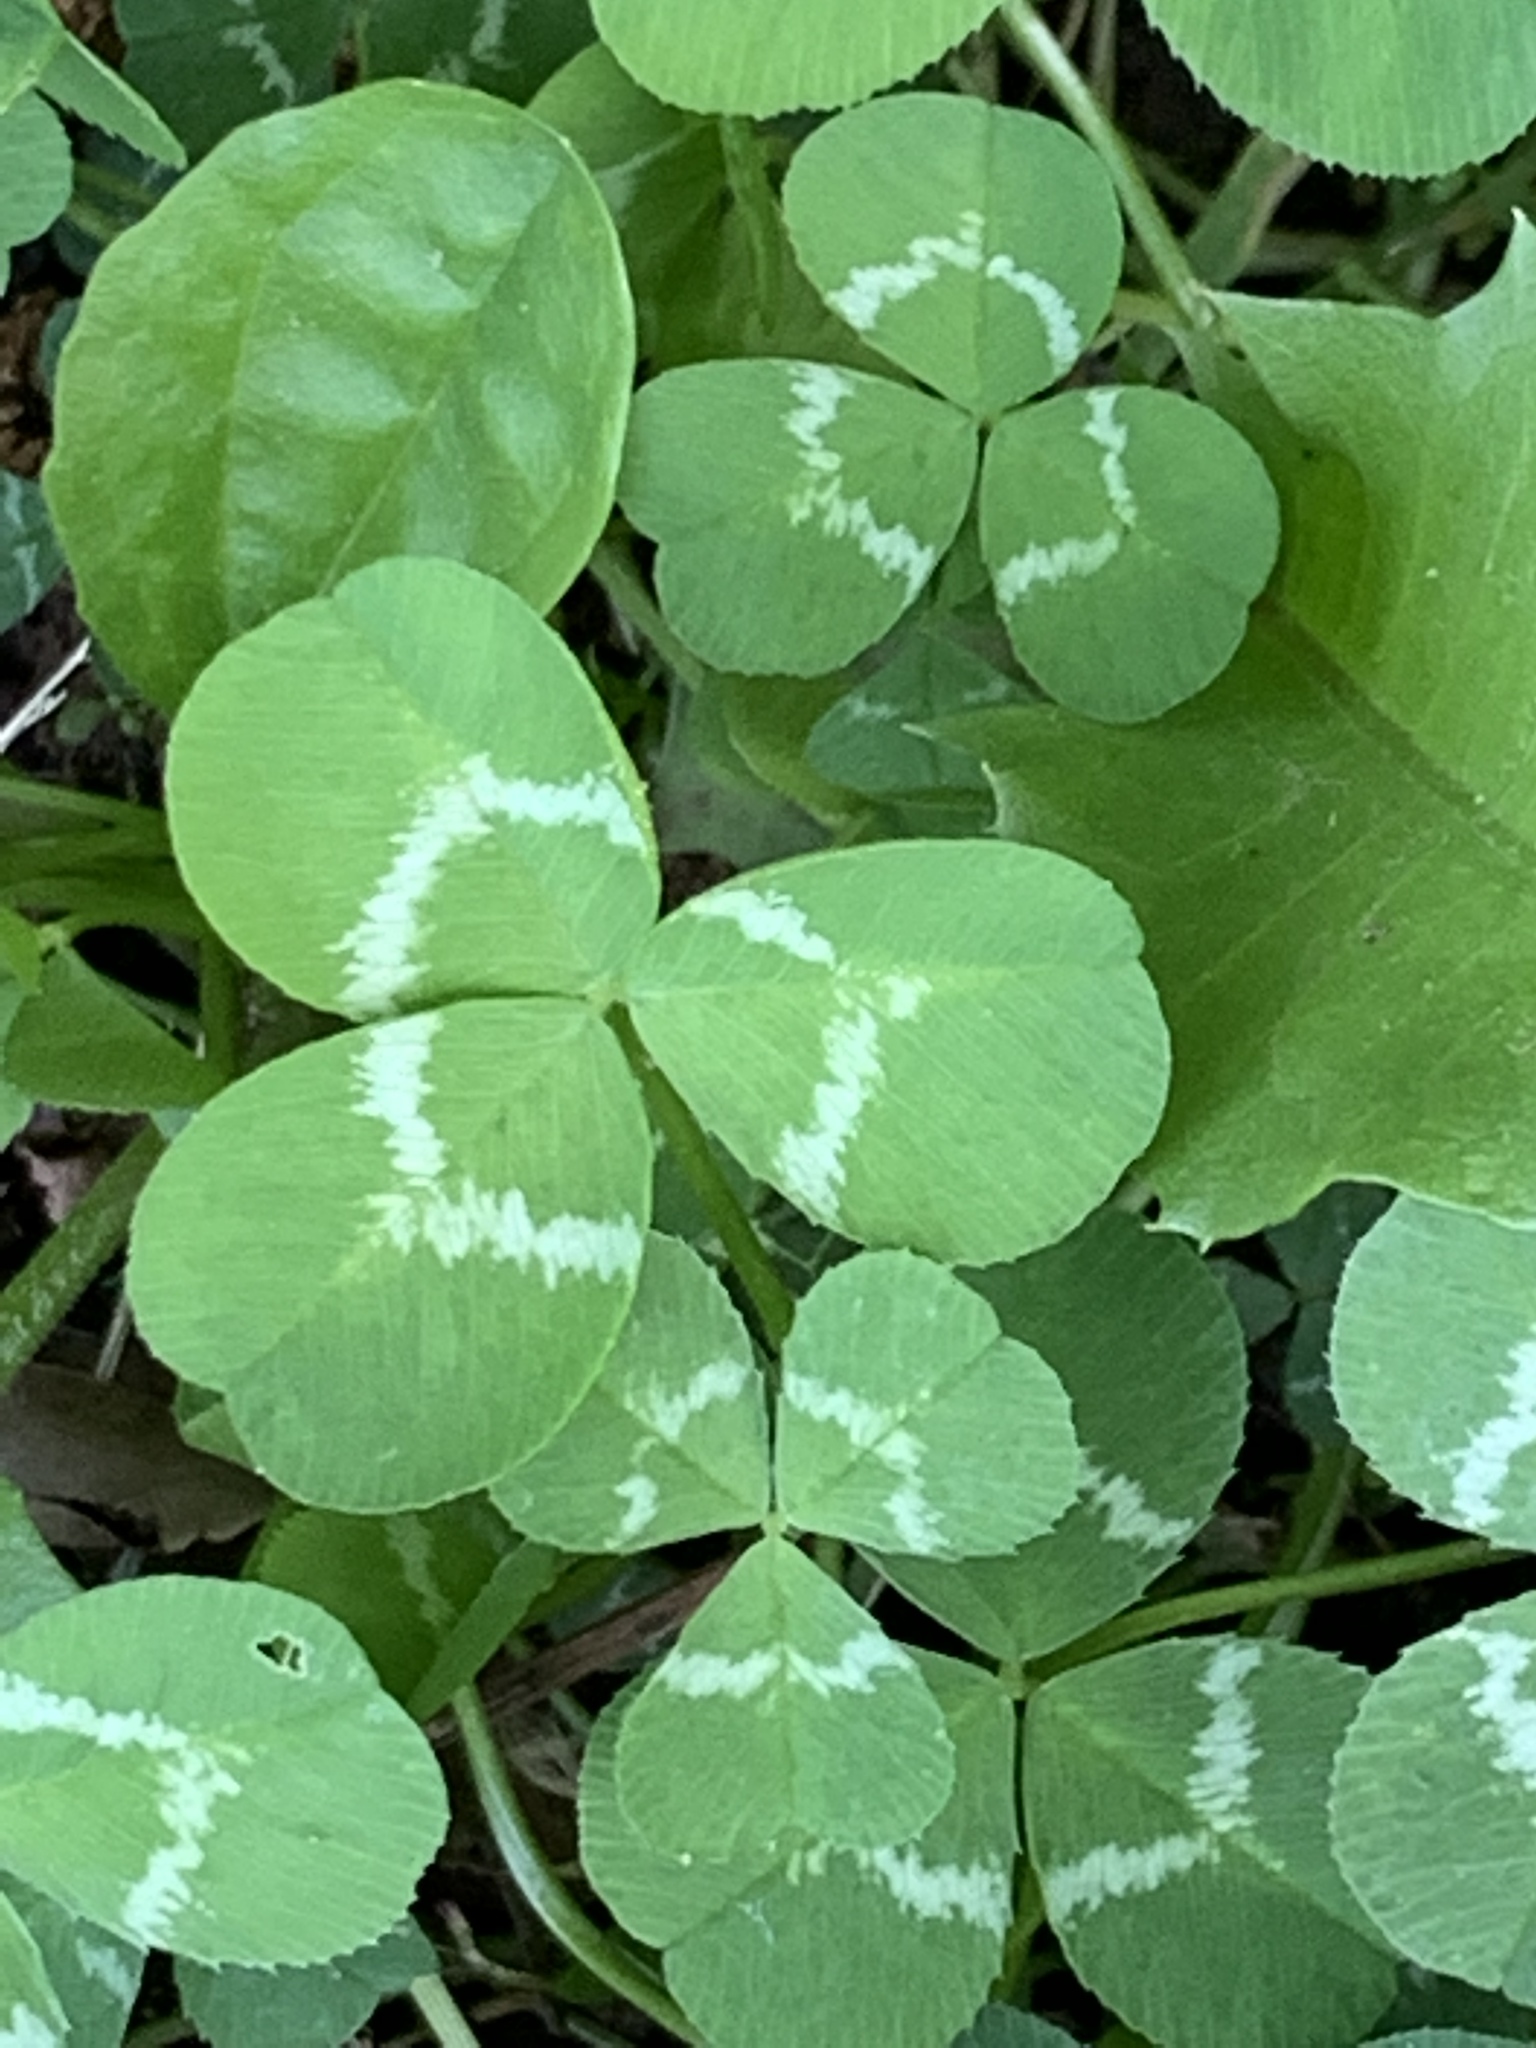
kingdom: Plantae
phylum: Tracheophyta
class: Magnoliopsida
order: Fabales
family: Fabaceae
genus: Trifolium
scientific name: Trifolium repens
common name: White clover
